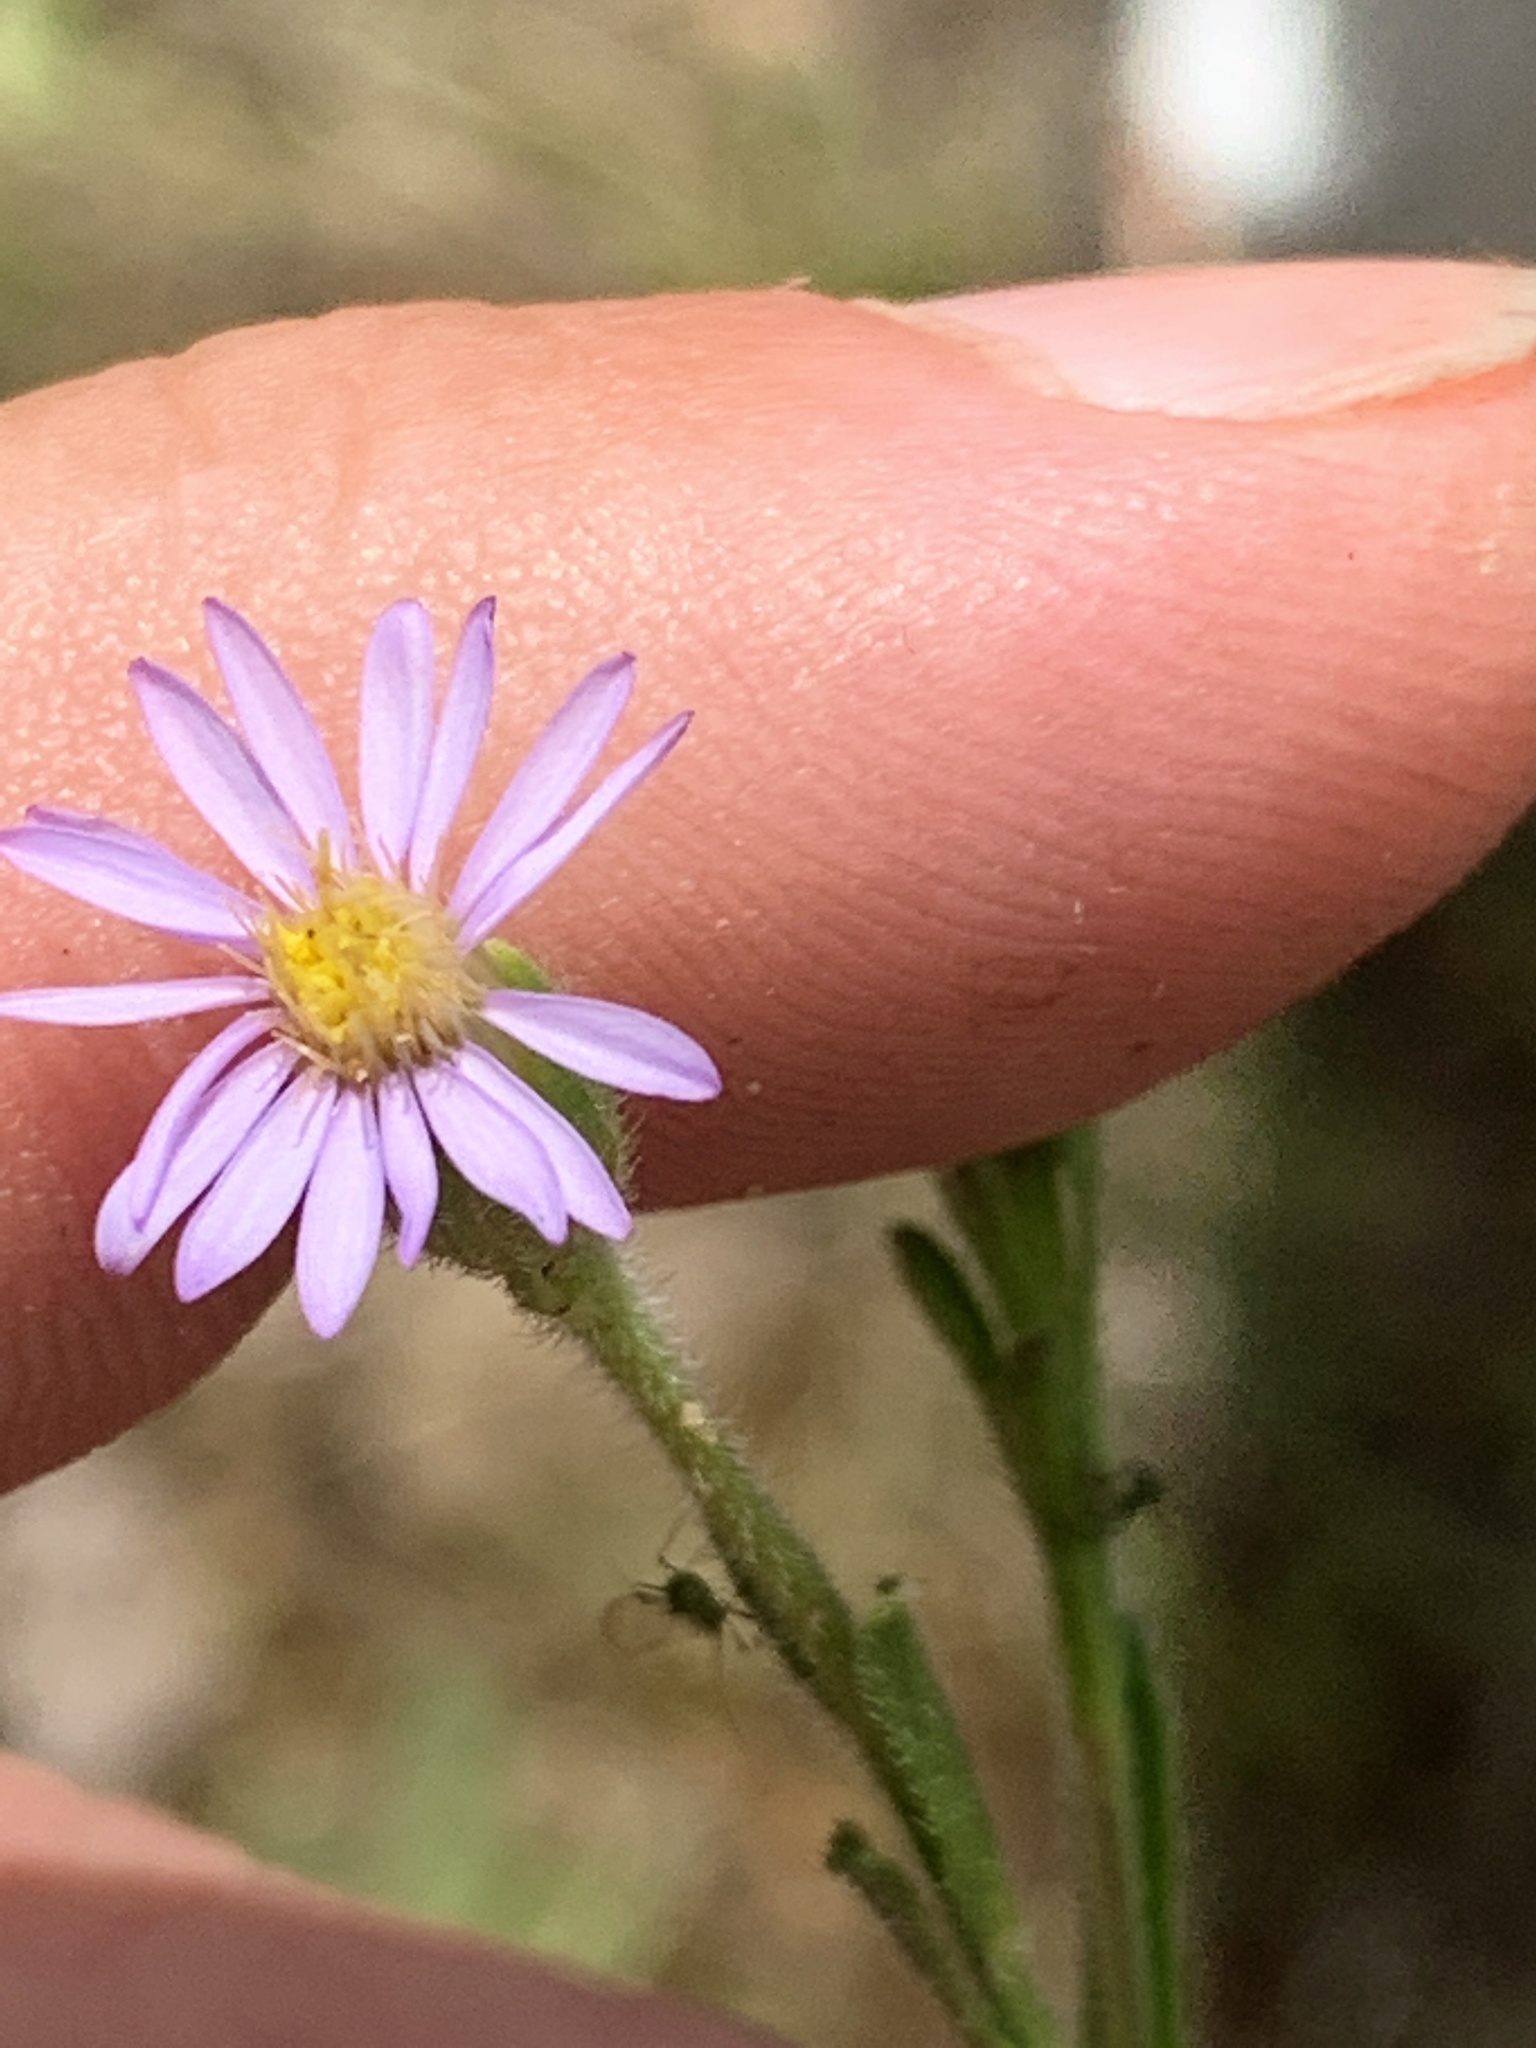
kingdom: Plantae
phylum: Tracheophyta
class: Magnoliopsida
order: Asterales
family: Asteraceae
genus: Vittadinia
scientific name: Vittadinia muelleri
